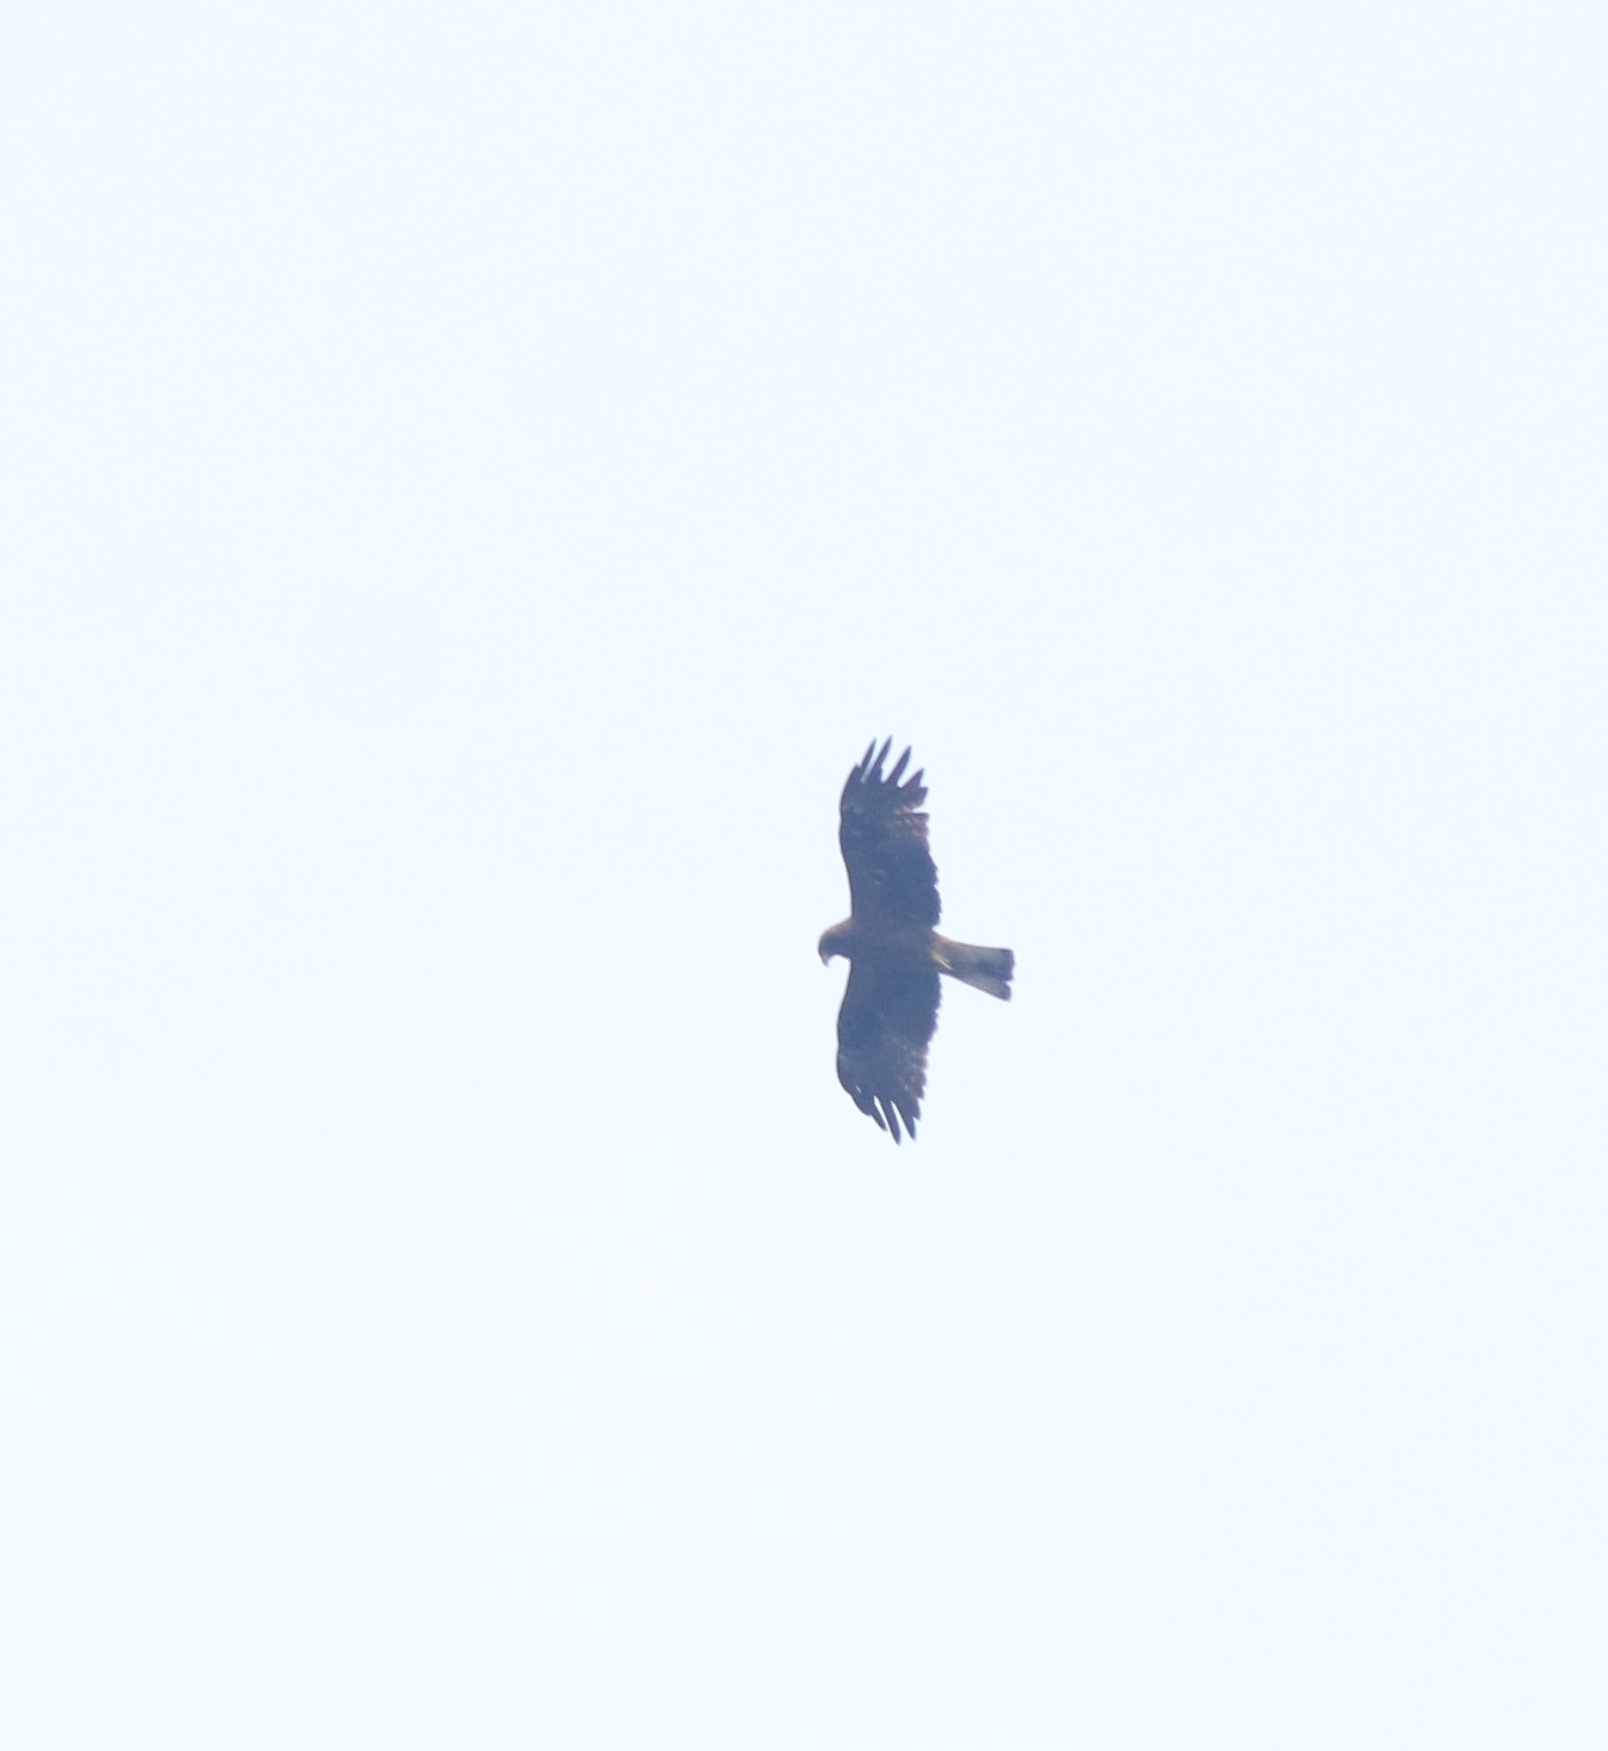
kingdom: Animalia
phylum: Chordata
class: Aves
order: Accipitriformes
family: Accipitridae
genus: Hieraaetus
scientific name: Hieraaetus pennatus
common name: Booted eagle
